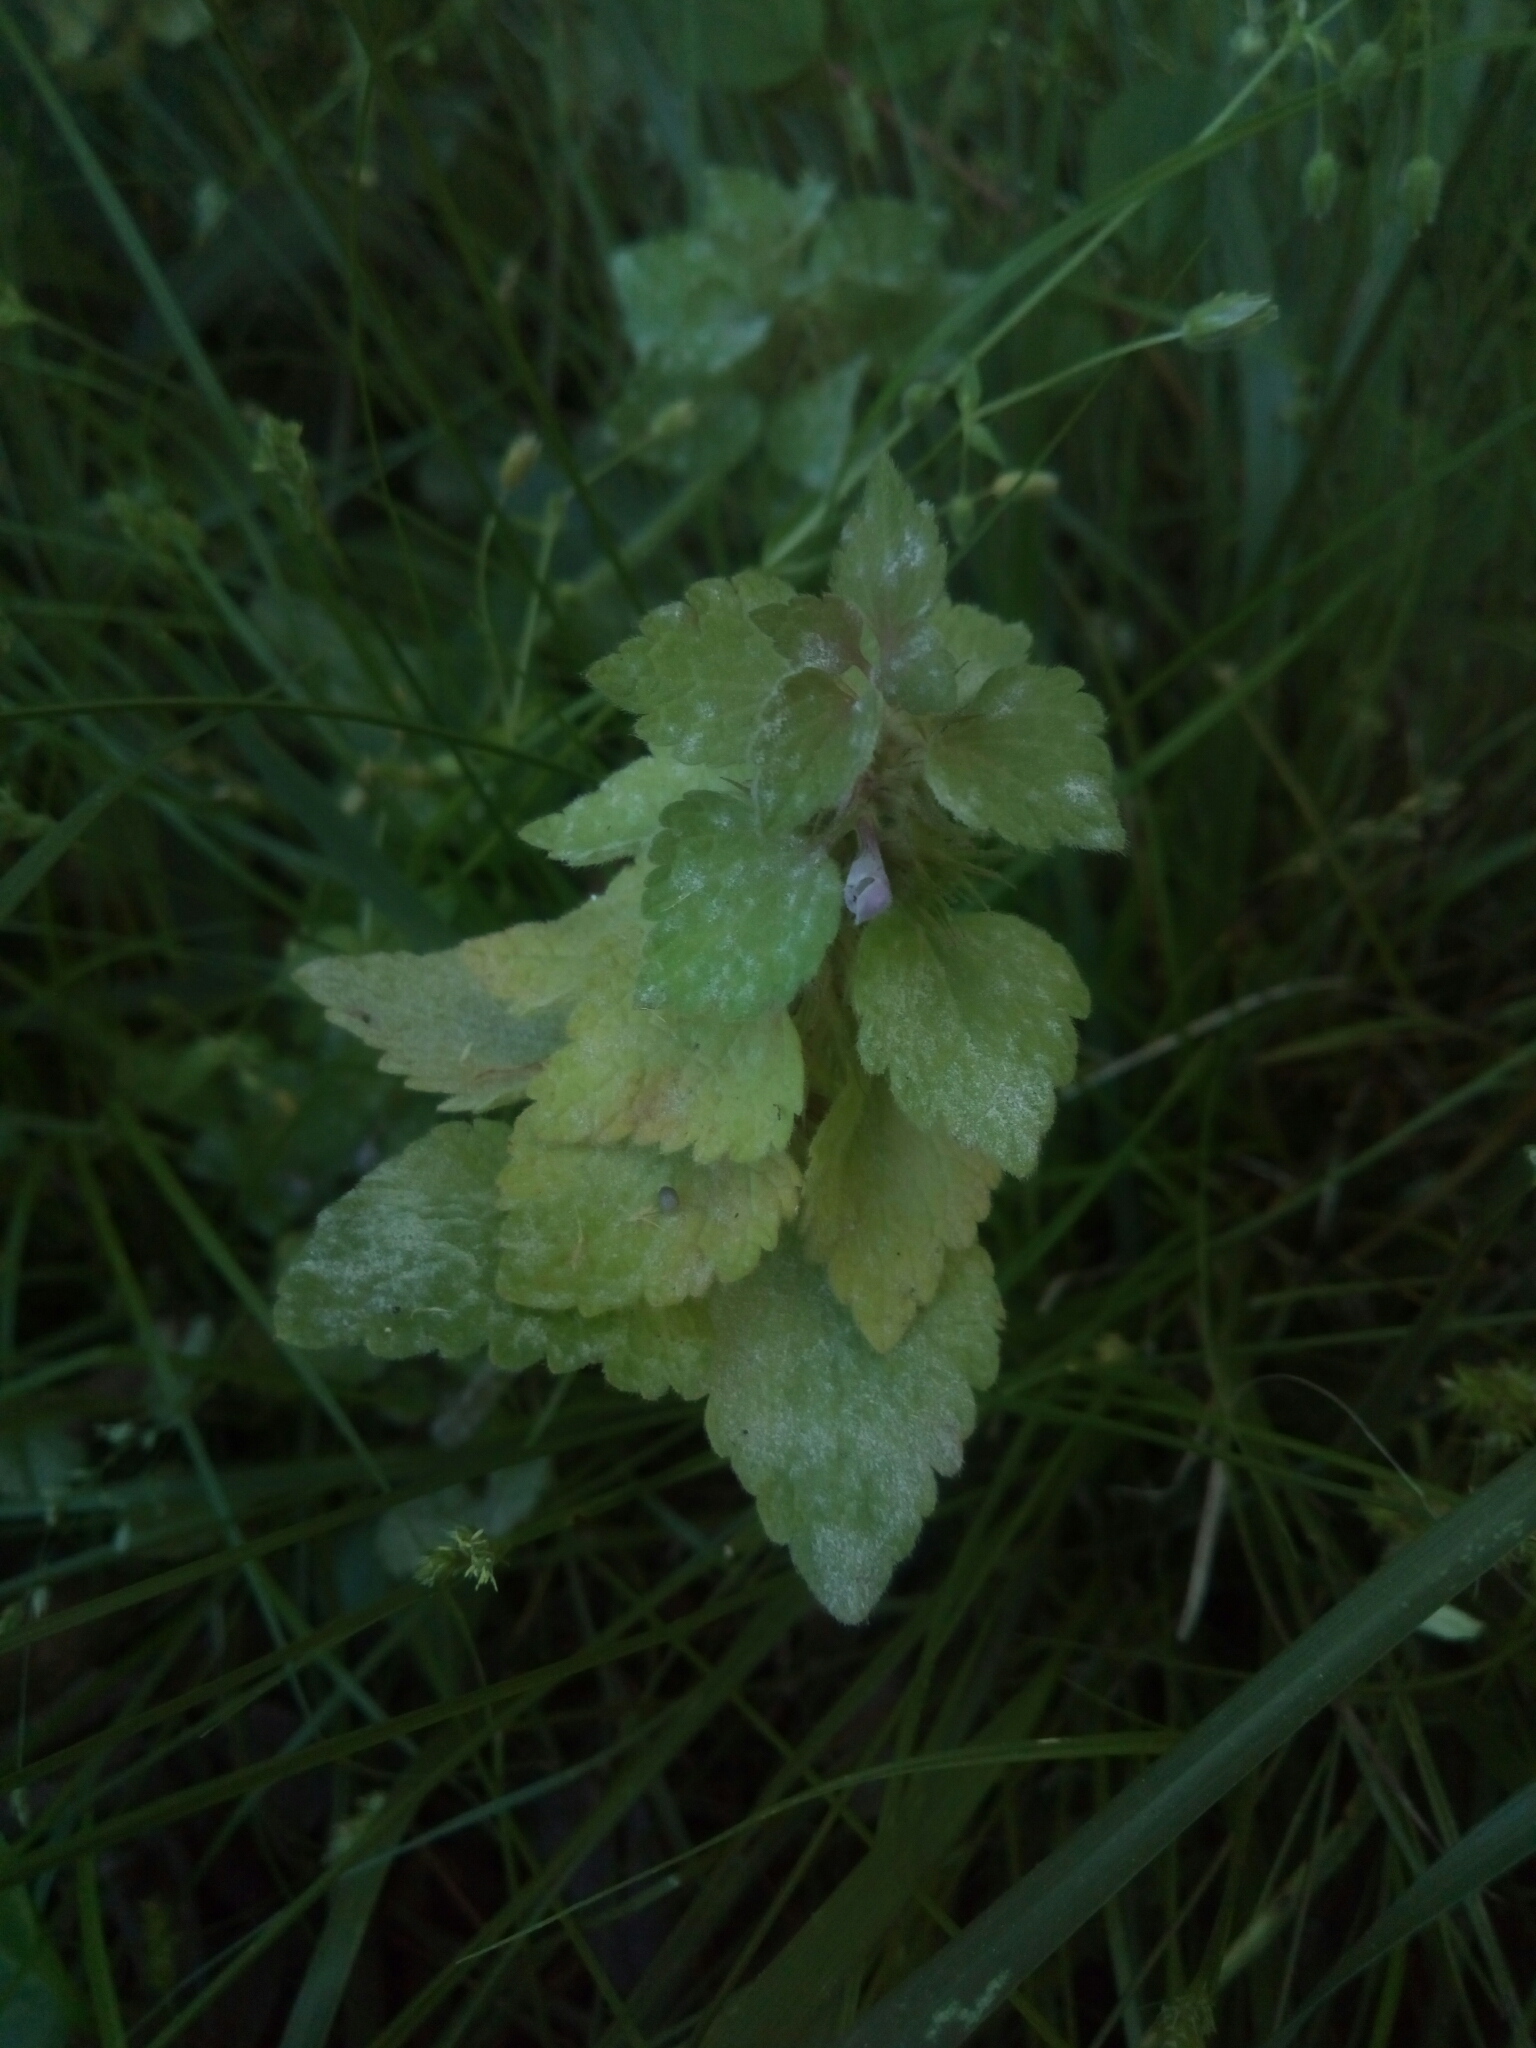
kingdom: Plantae
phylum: Tracheophyta
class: Magnoliopsida
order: Lamiales
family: Lamiaceae
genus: Lamium
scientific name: Lamium purpureum
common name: Red dead-nettle
